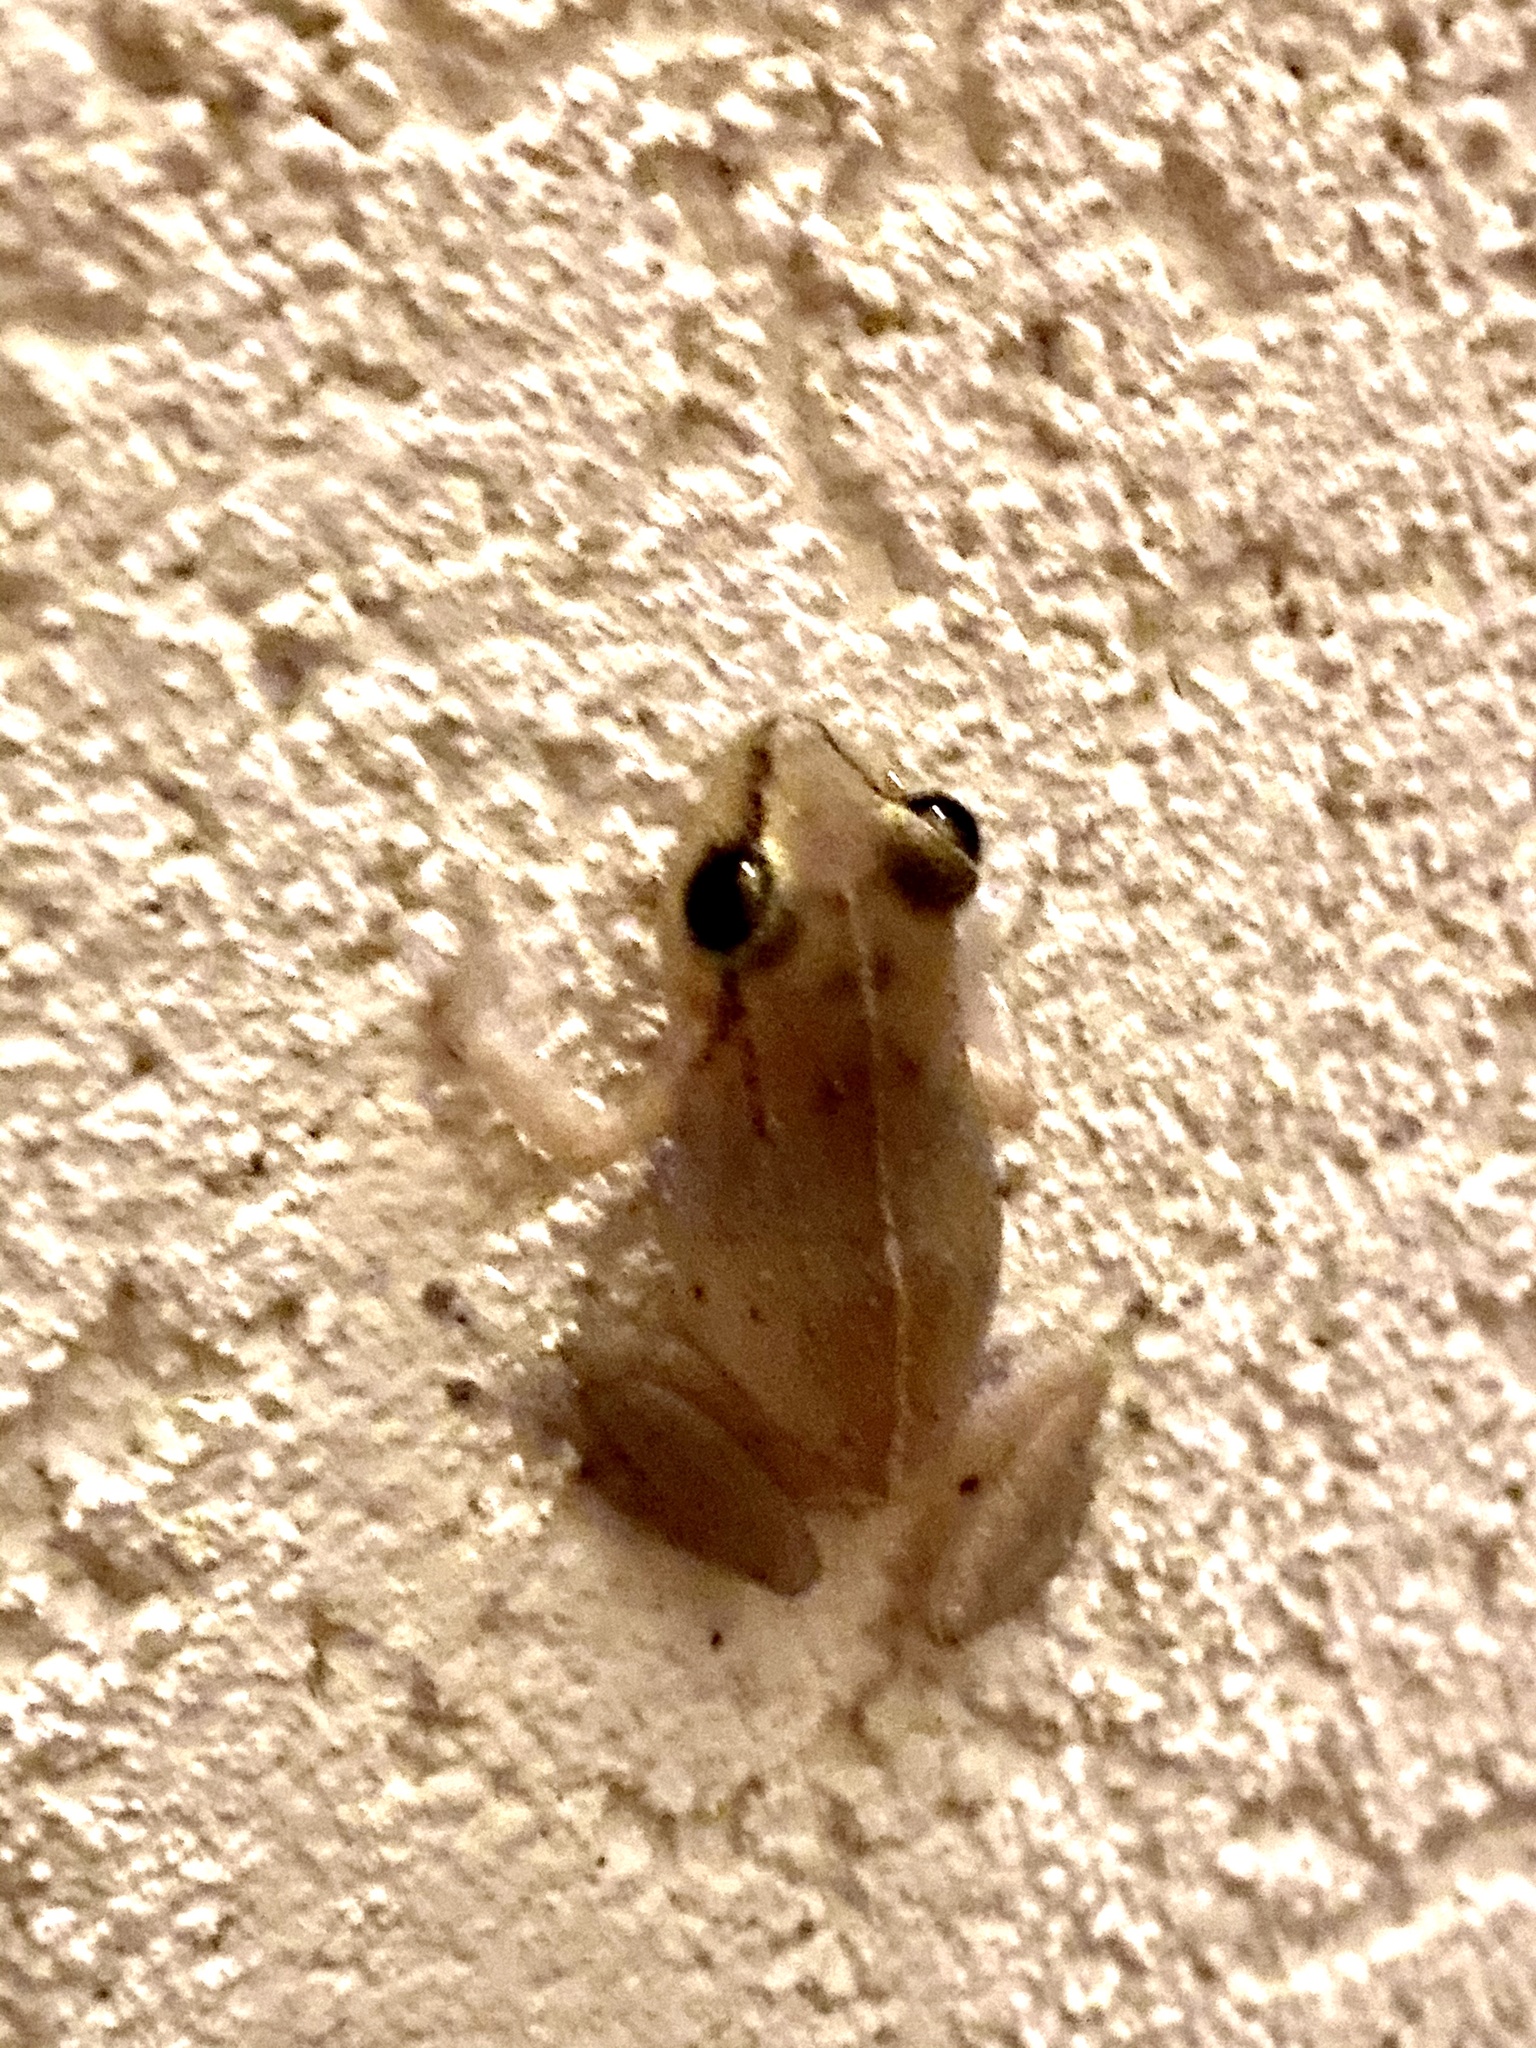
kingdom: Animalia
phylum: Chordata
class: Amphibia
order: Anura
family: Eleutherodactylidae
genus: Eleutherodactylus
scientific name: Eleutherodactylus johnstonei
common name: Johnstone's robber frog
